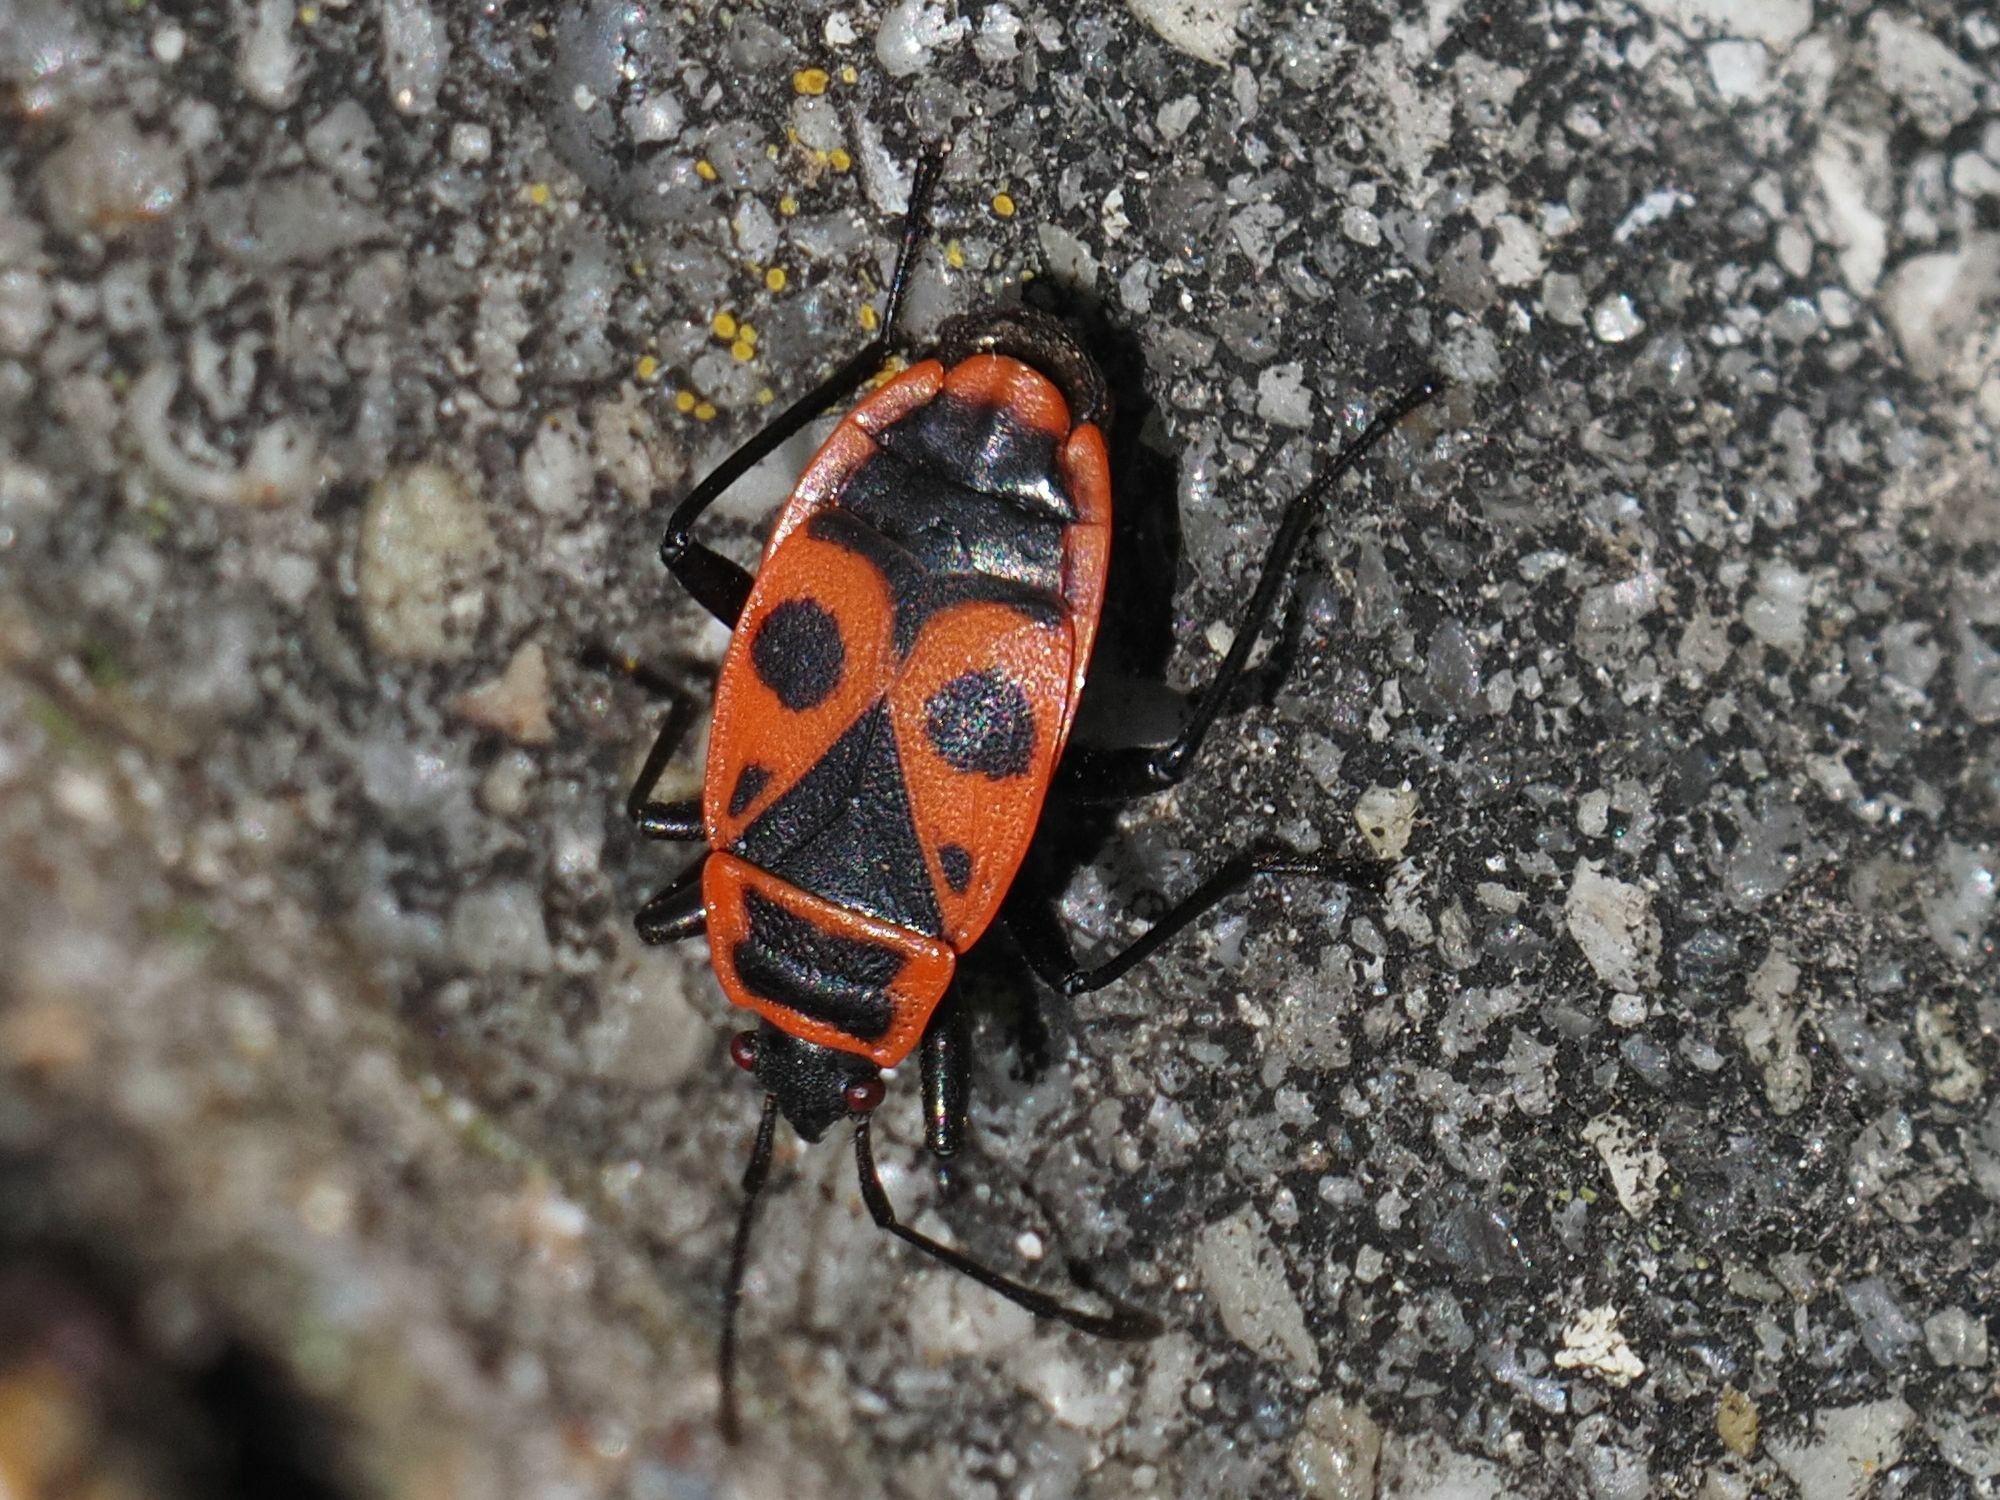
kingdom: Animalia
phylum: Arthropoda
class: Insecta
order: Hemiptera
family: Pyrrhocoridae
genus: Pyrrhocoris
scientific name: Pyrrhocoris apterus
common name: Firebug
